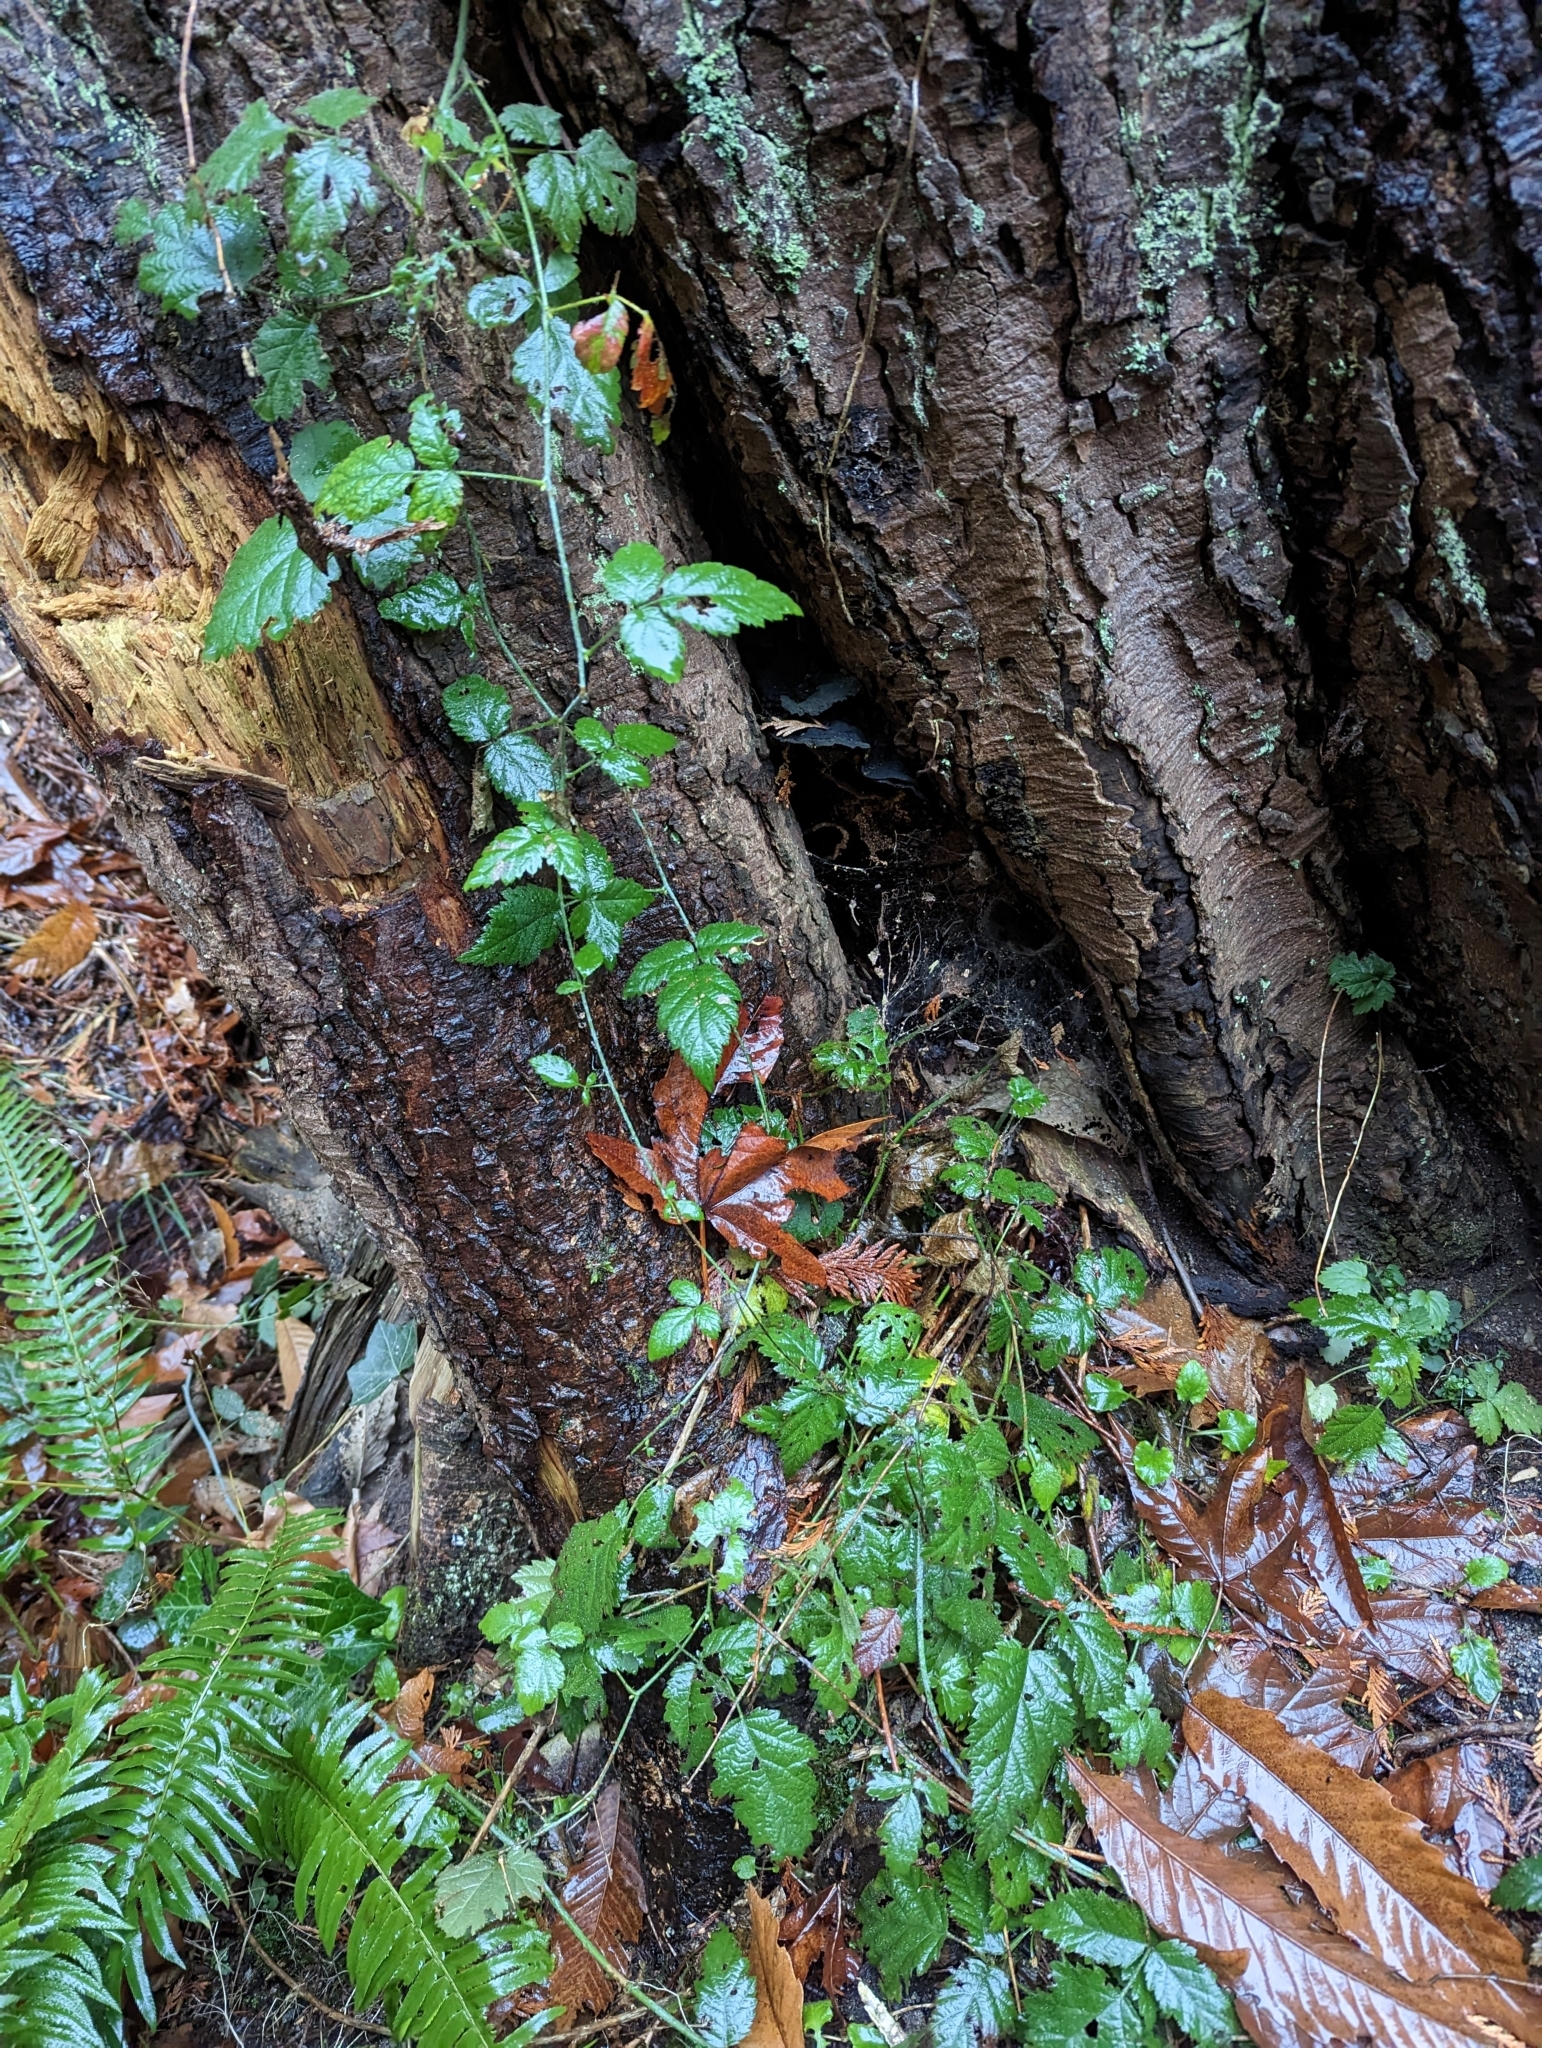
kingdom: Plantae
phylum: Tracheophyta
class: Magnoliopsida
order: Rosales
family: Rosaceae
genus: Rubus
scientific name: Rubus ursinus
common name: Pacific blackberry
